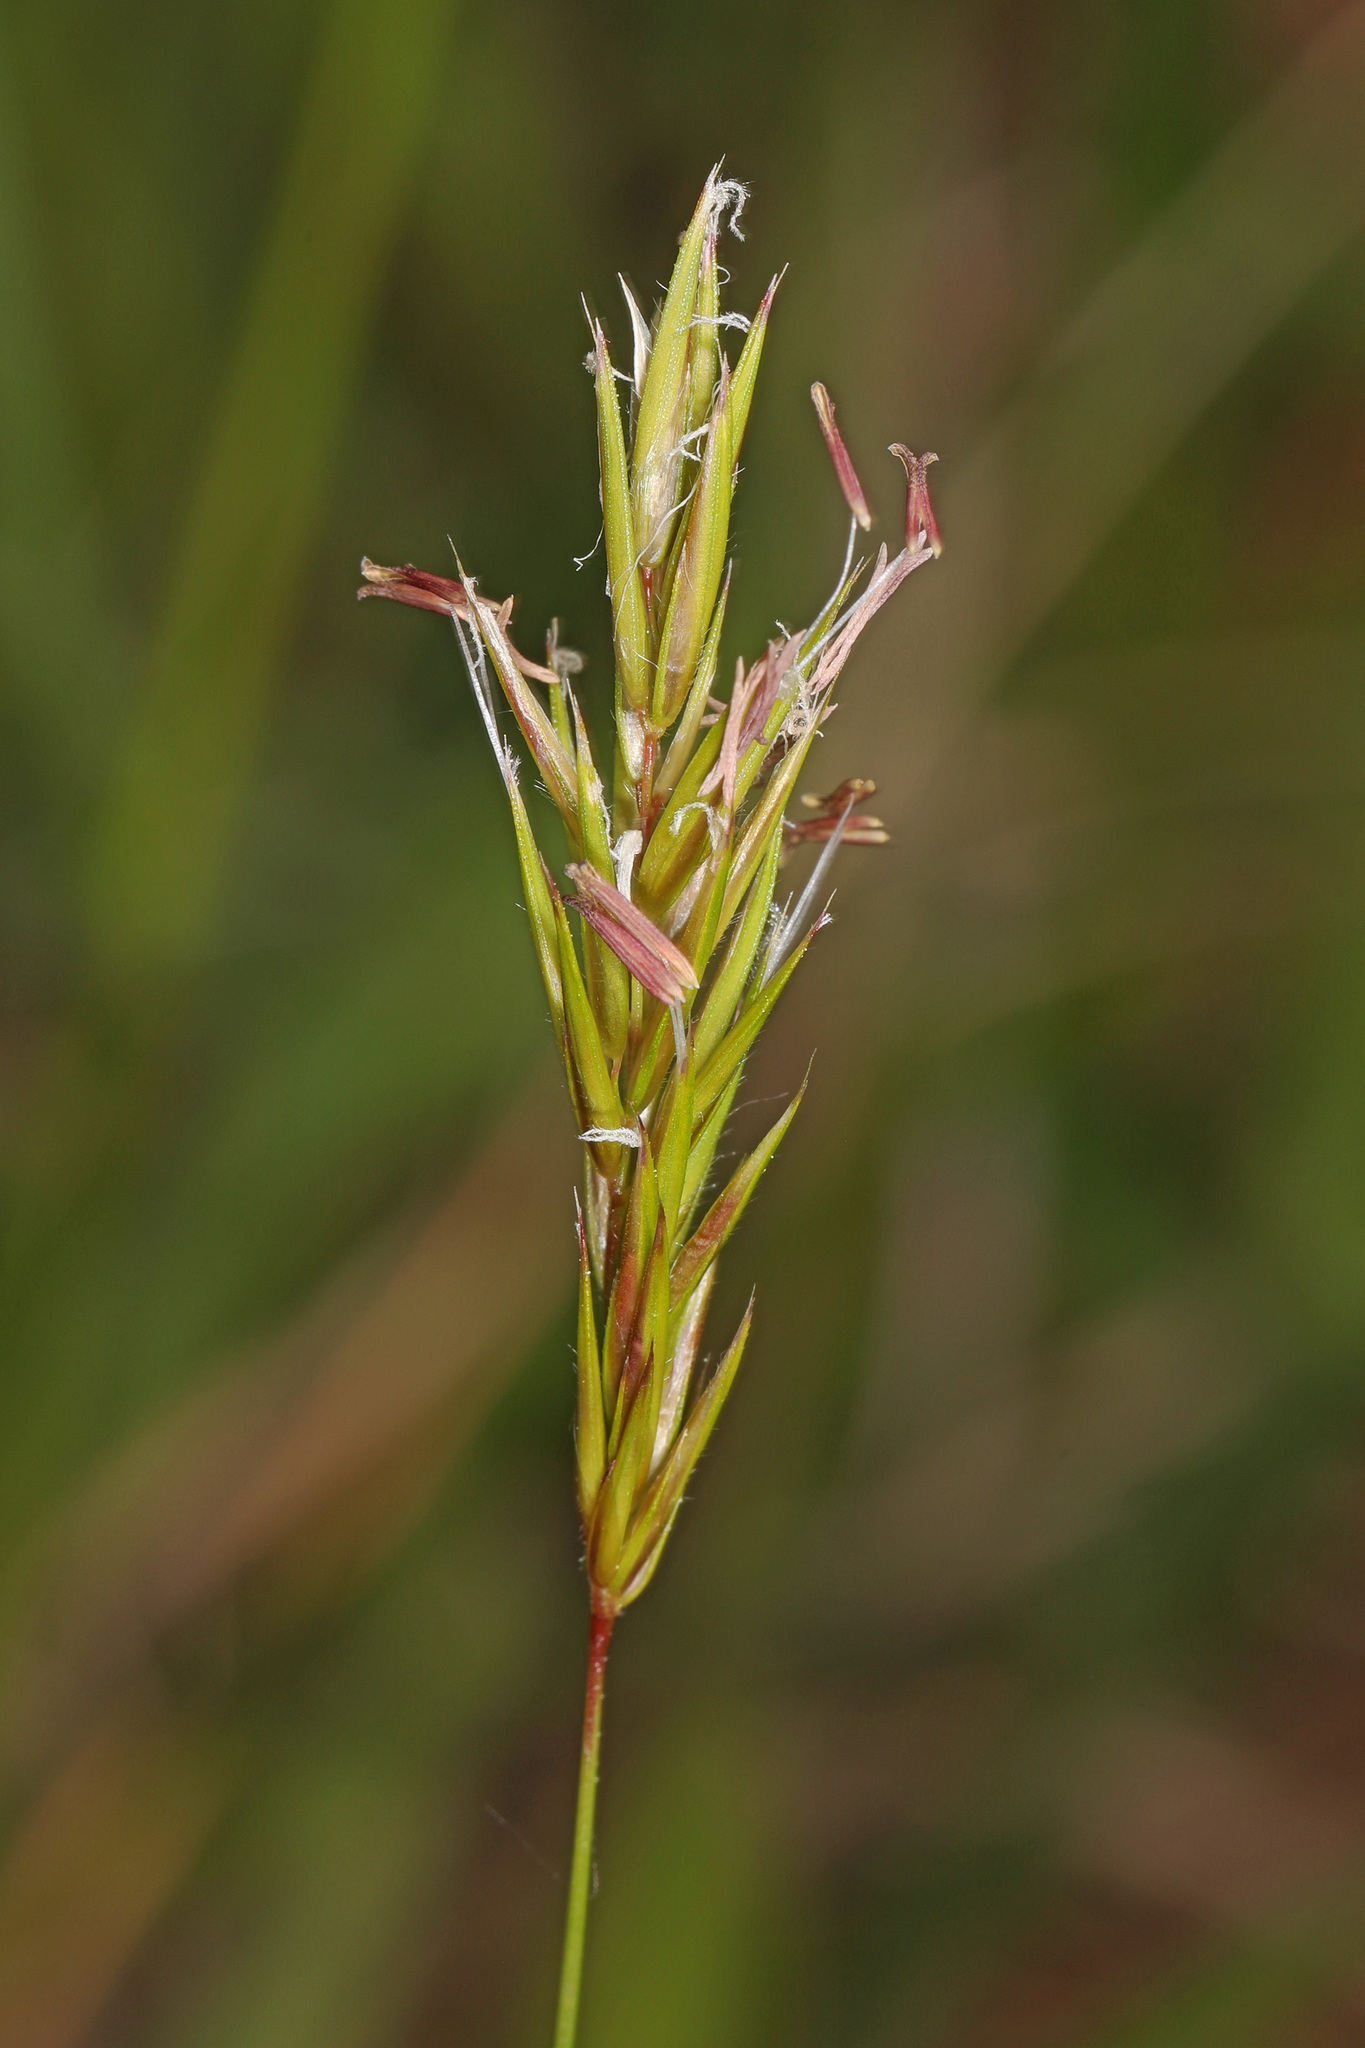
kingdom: Plantae
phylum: Tracheophyta
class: Liliopsida
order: Poales
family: Poaceae
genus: Anthoxanthum
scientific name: Anthoxanthum odoratum
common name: Sweet vernalgrass
